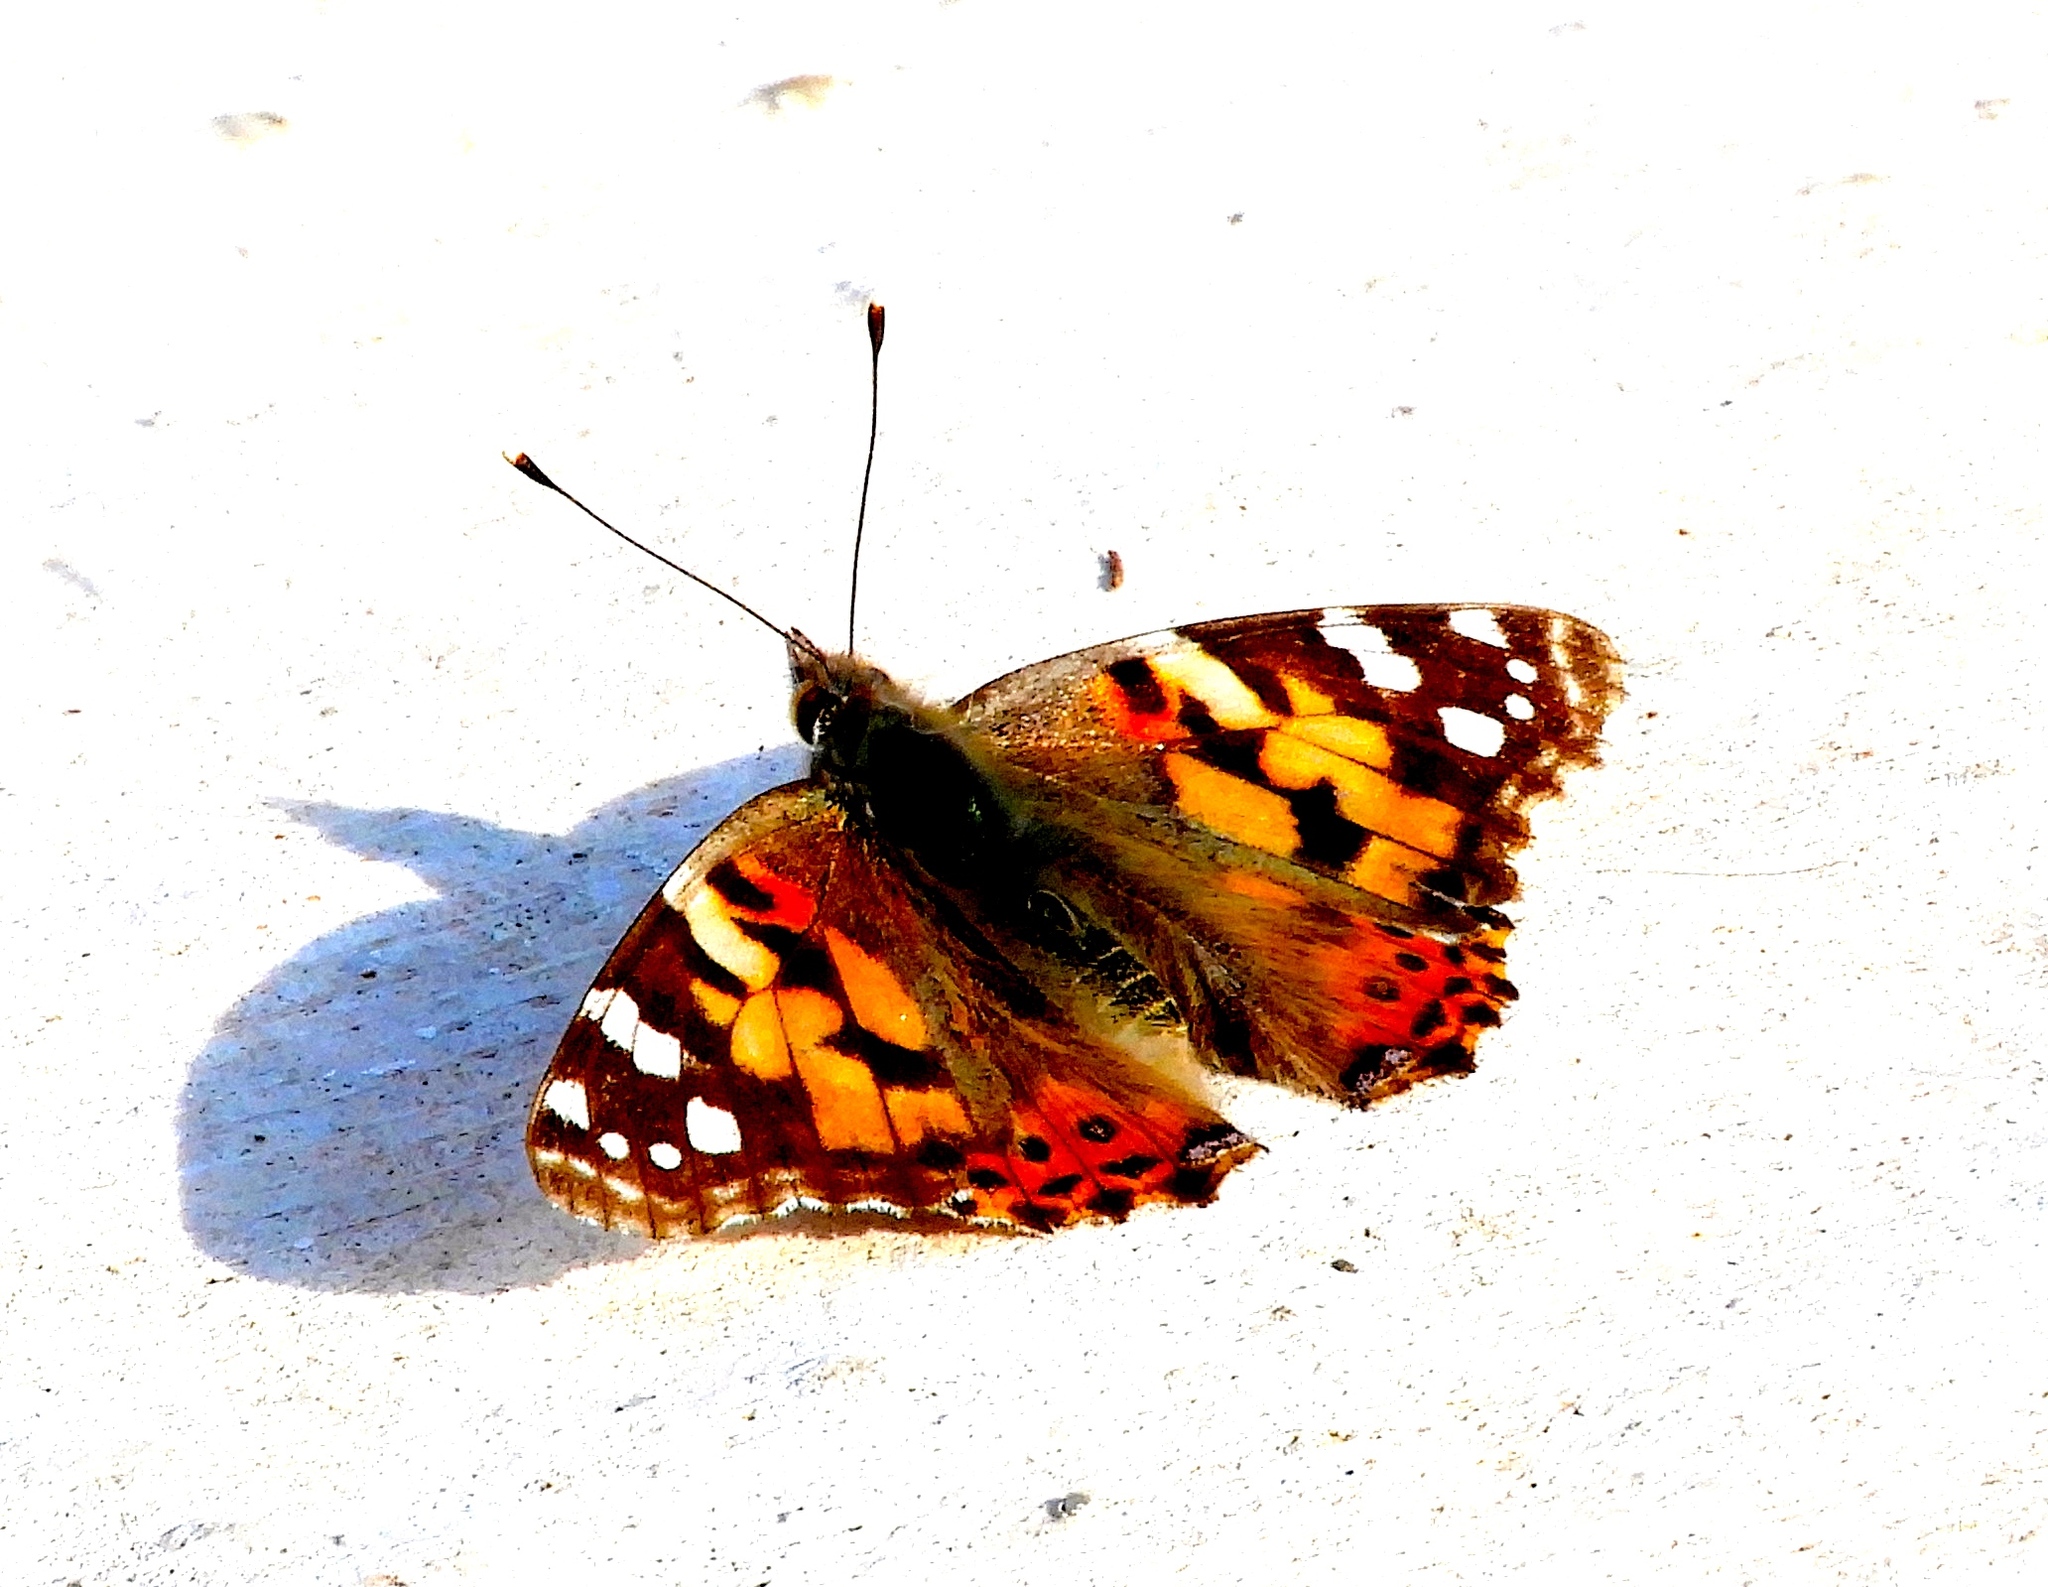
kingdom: Animalia
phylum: Arthropoda
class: Insecta
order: Lepidoptera
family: Nymphalidae
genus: Vanessa
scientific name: Vanessa cardui
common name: Painted lady
